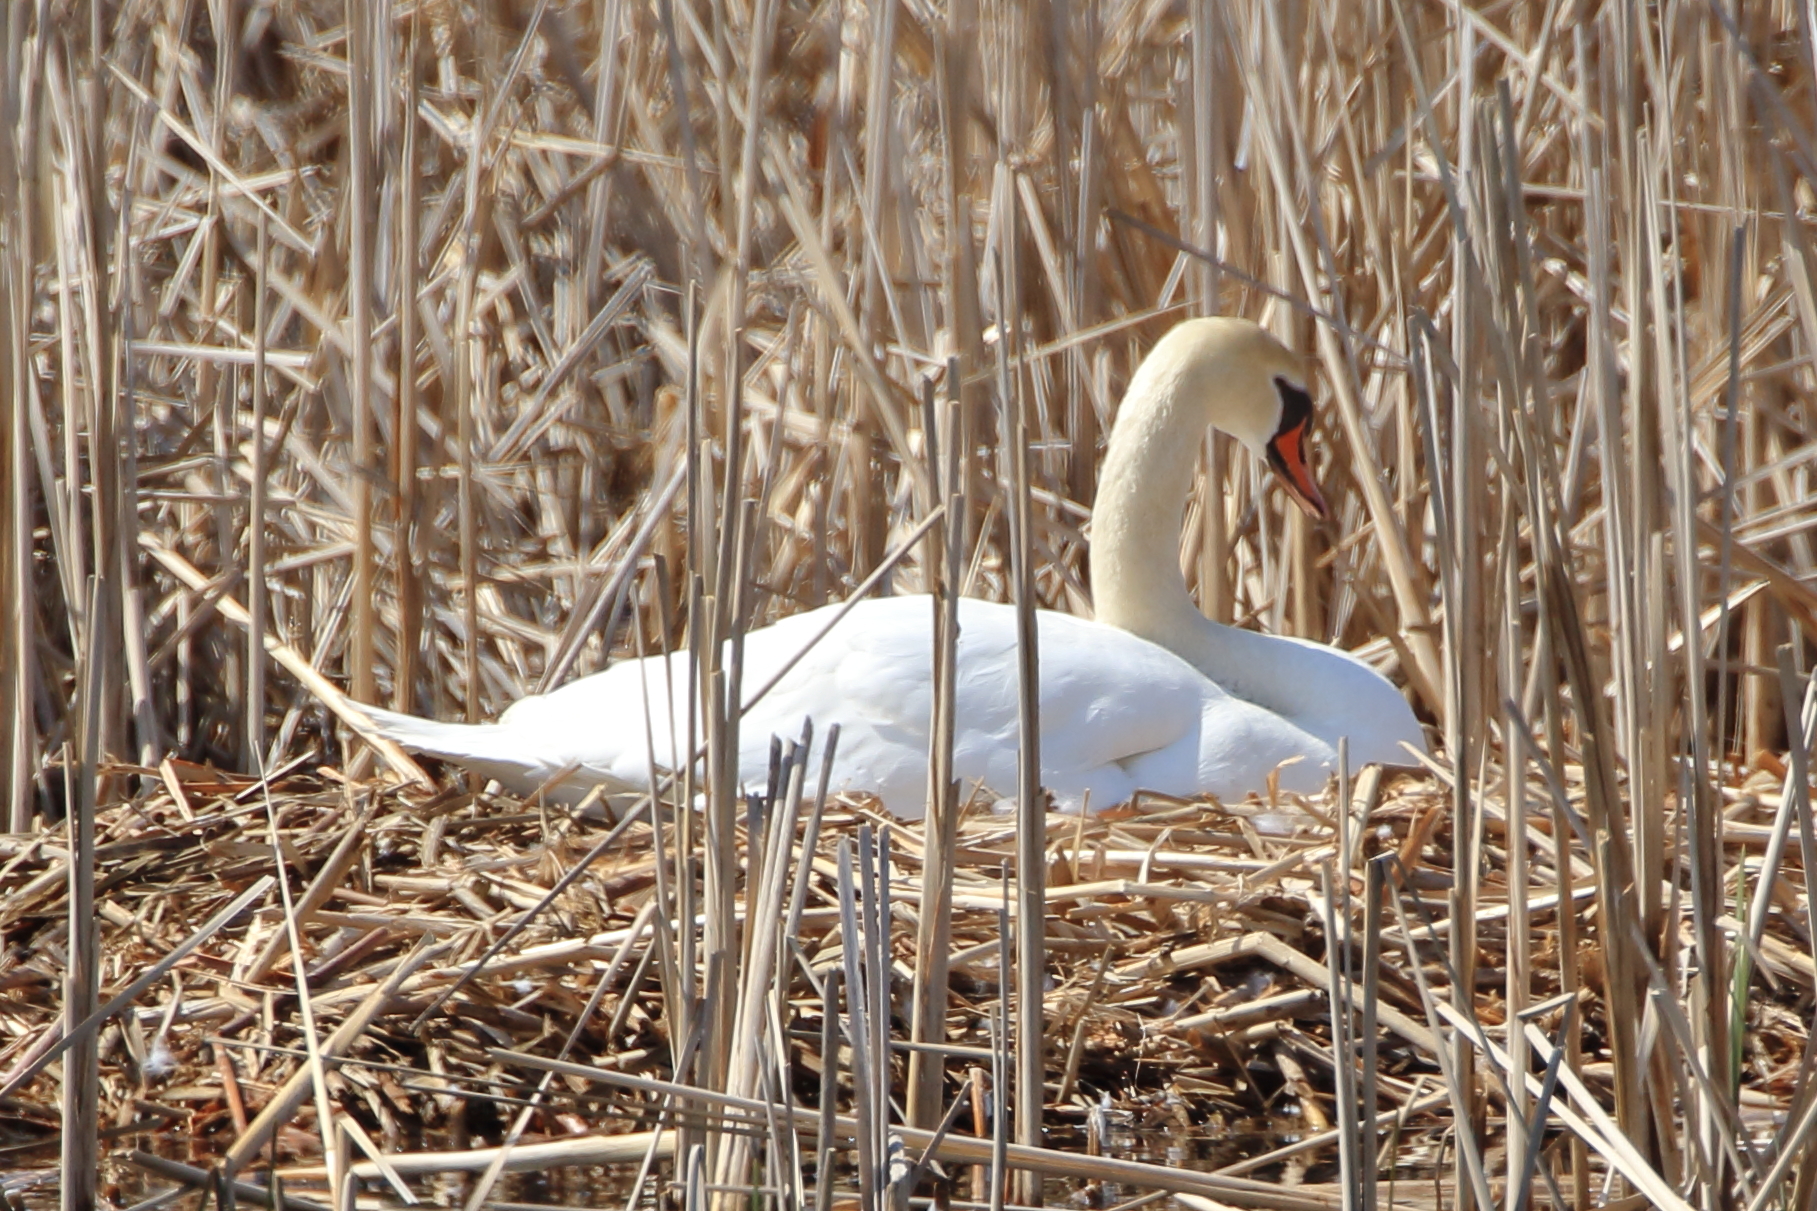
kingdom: Animalia
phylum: Chordata
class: Aves
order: Anseriformes
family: Anatidae
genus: Cygnus
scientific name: Cygnus olor
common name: Mute swan
